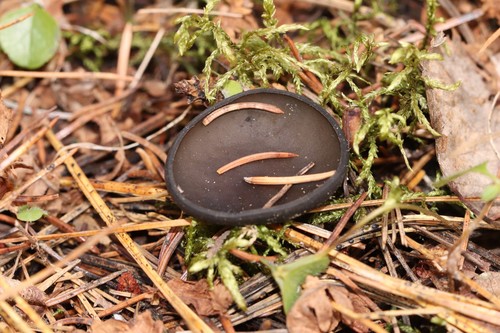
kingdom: Fungi
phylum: Ascomycota
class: Pezizomycetes
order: Pezizales
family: Sarcosomataceae
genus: Pseudoplectania
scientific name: Pseudoplectania melaena
